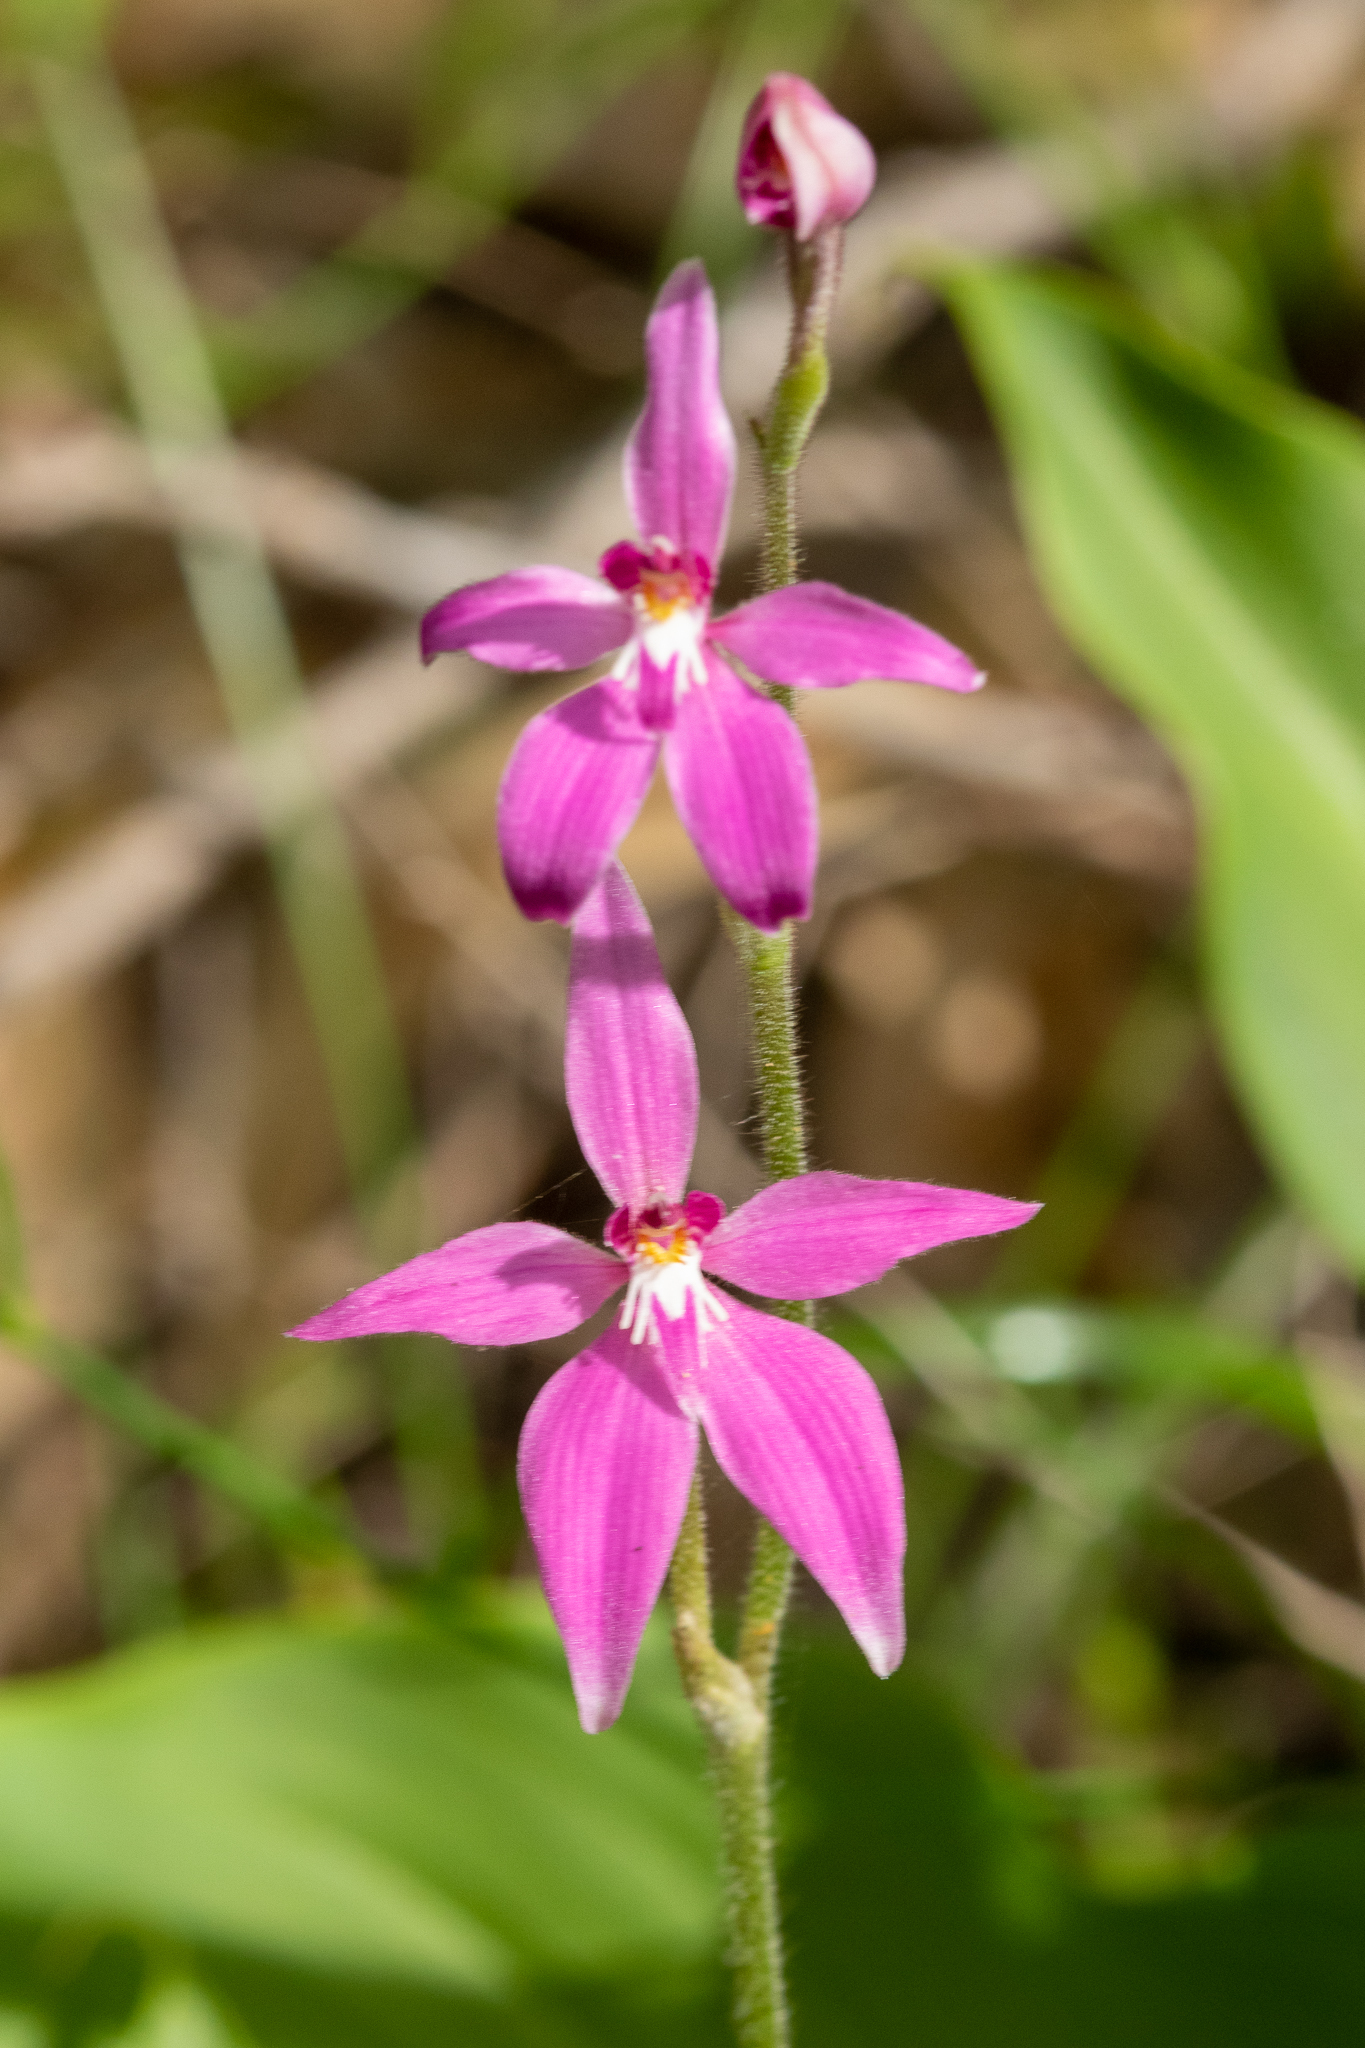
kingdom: Plantae
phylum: Tracheophyta
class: Liliopsida
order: Asparagales
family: Orchidaceae
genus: Caladenia
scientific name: Caladenia latifolia
